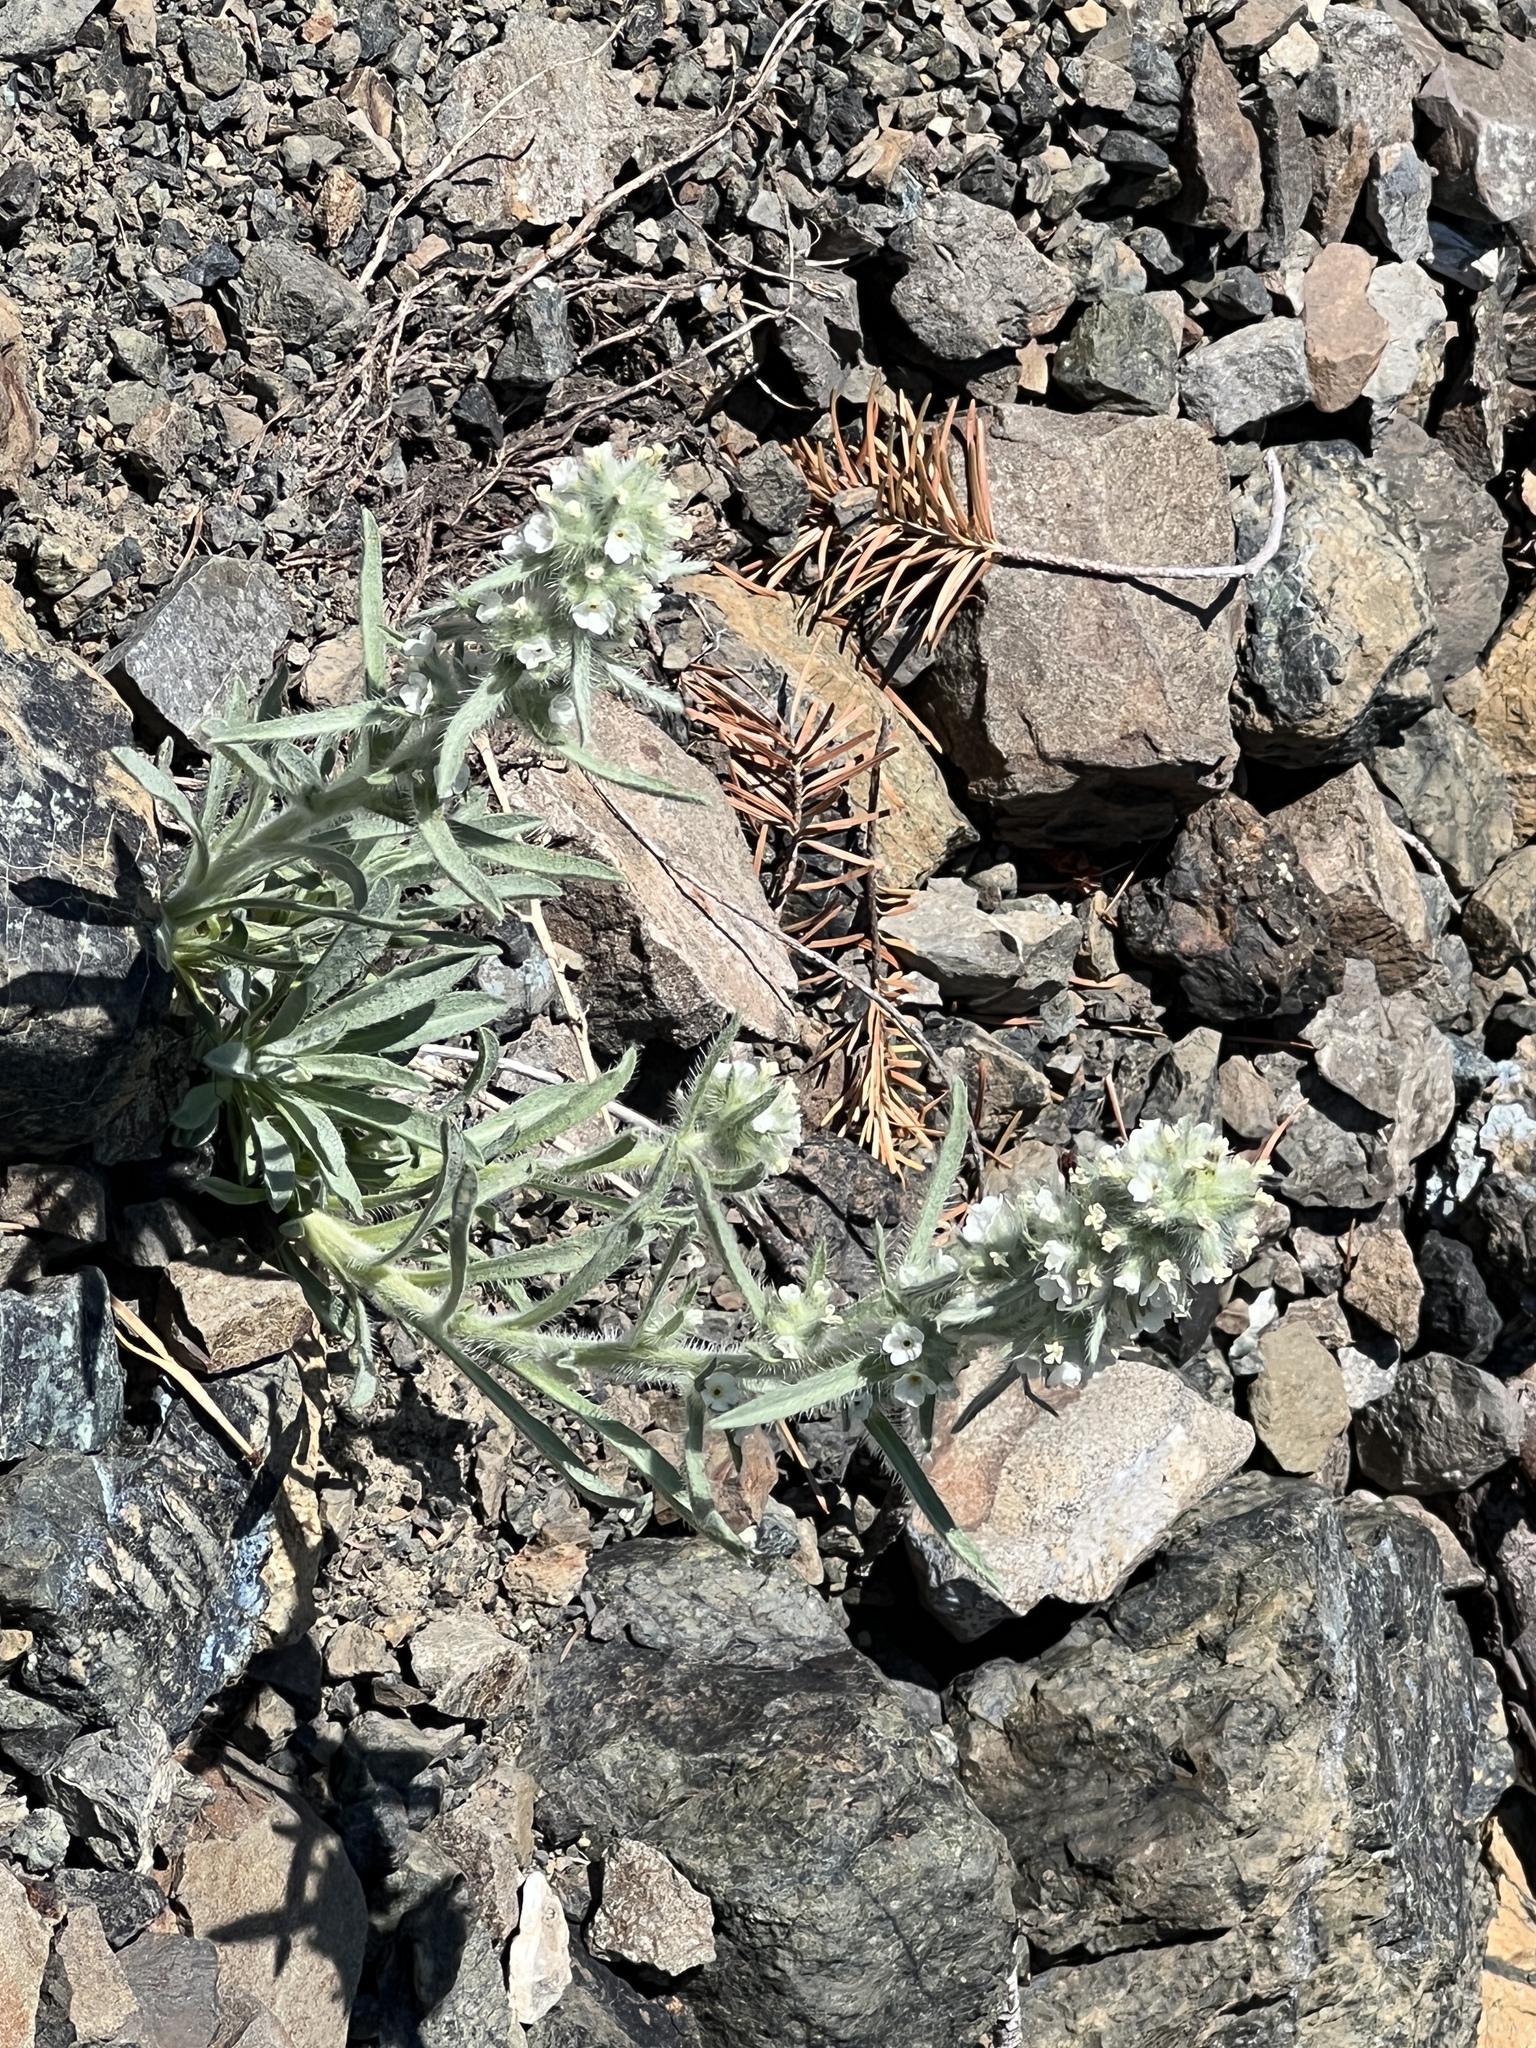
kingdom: Plantae
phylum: Tracheophyta
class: Magnoliopsida
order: Boraginales
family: Boraginaceae
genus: Oreocarya
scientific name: Oreocarya thompsonii
